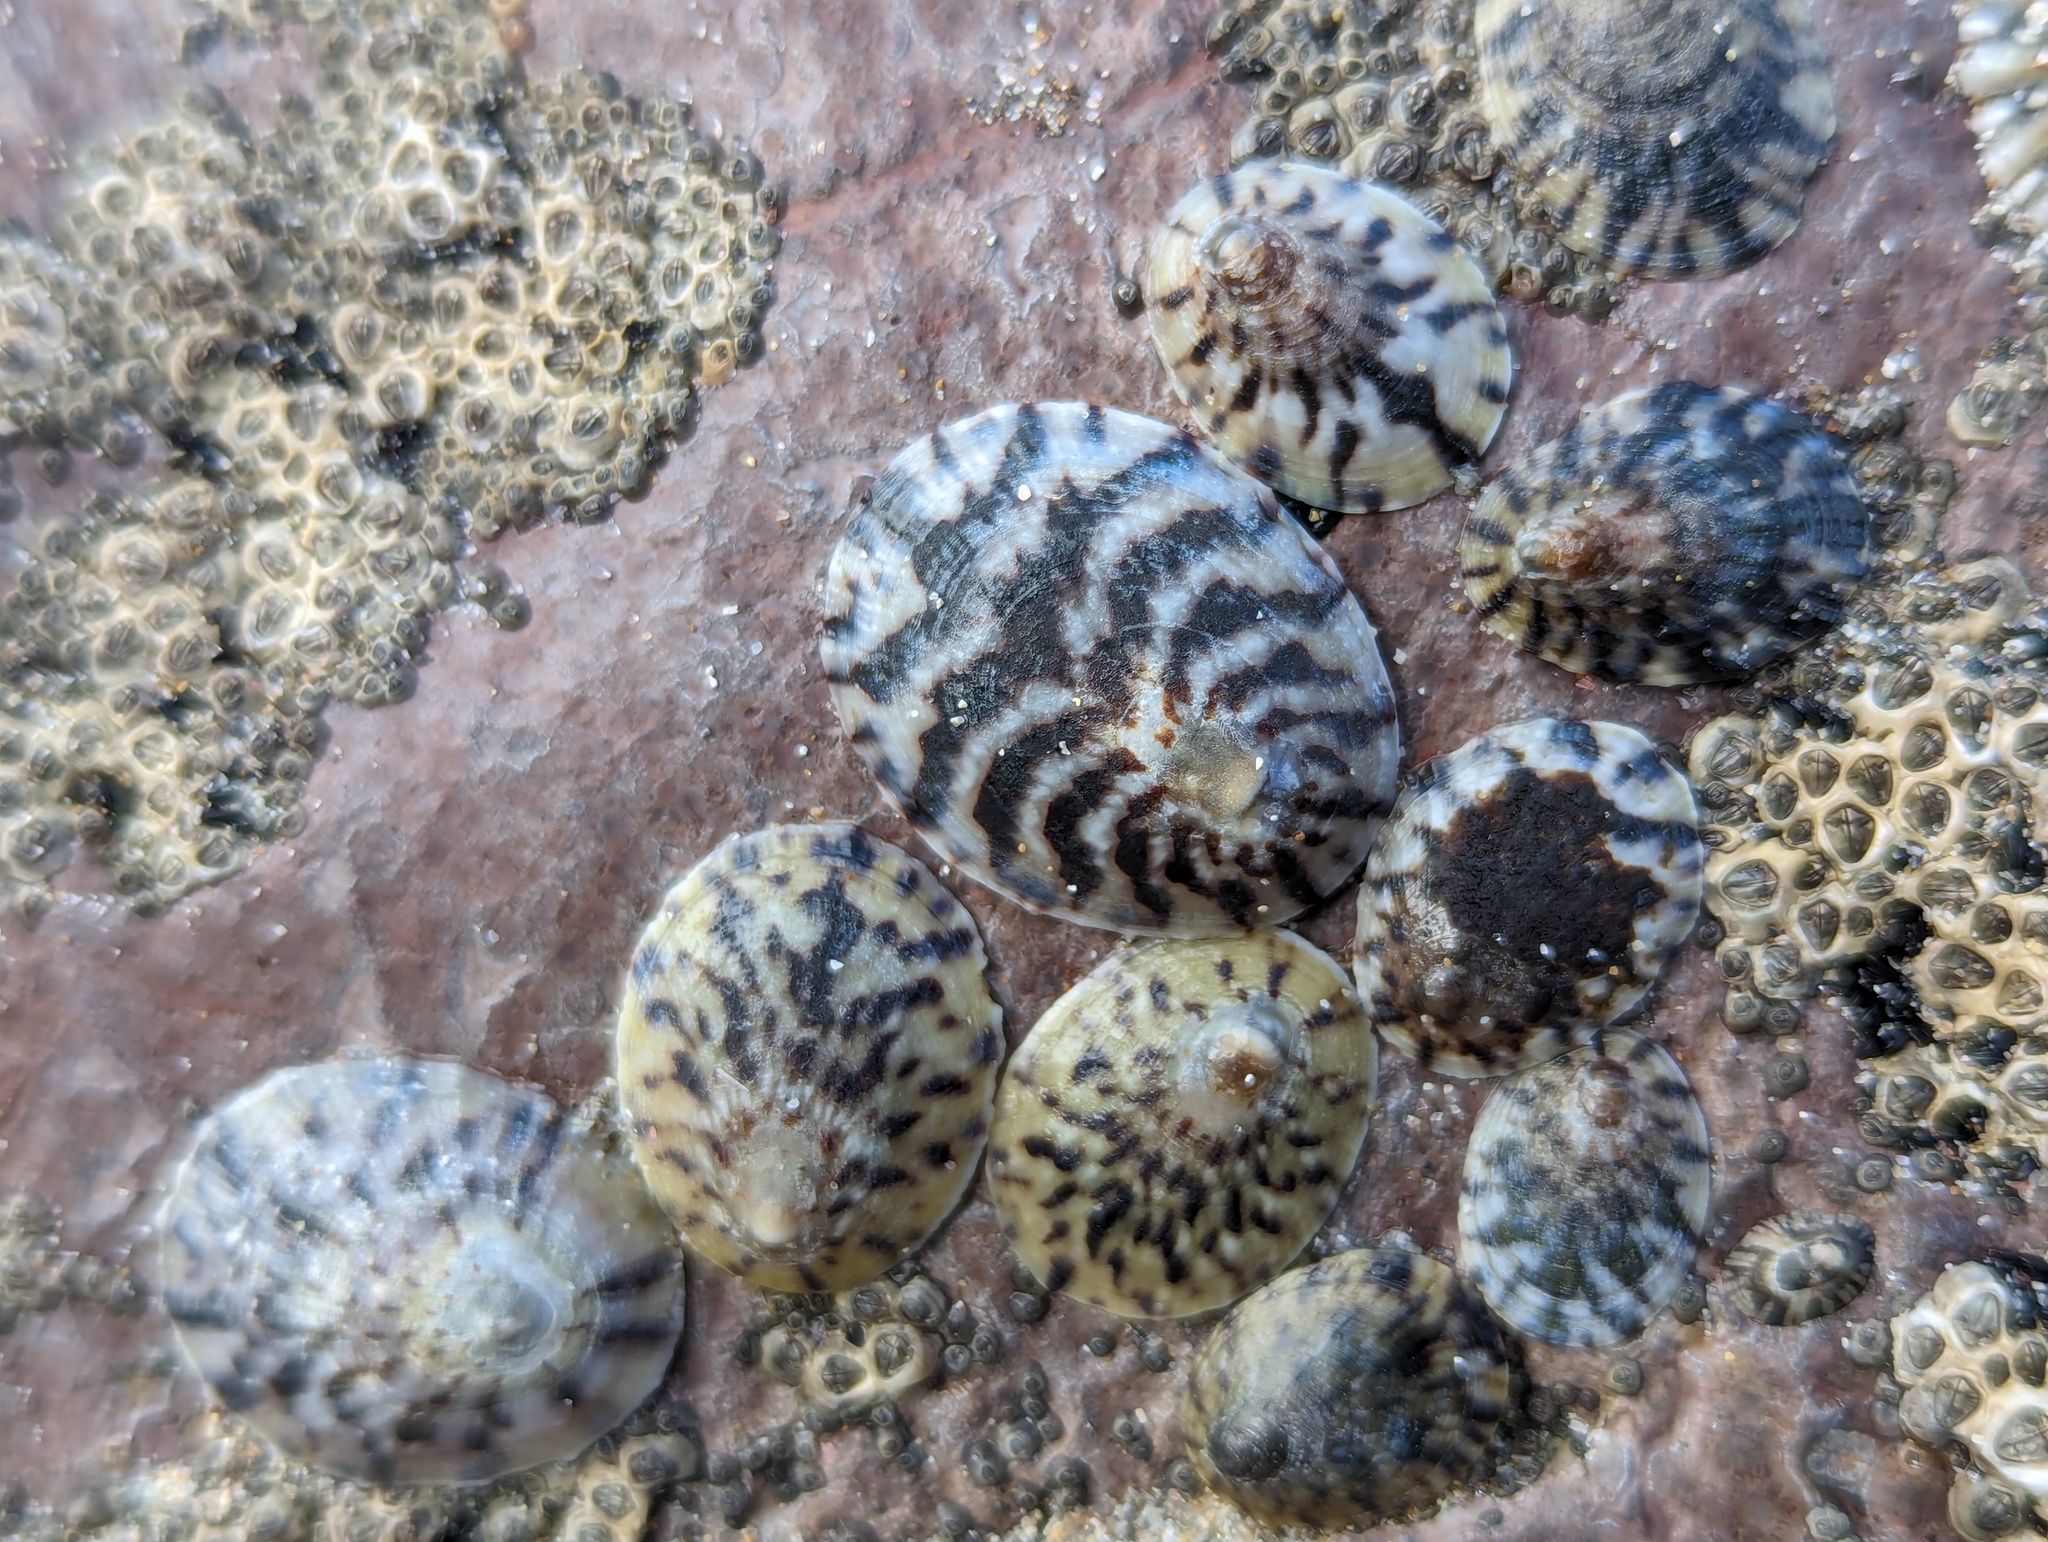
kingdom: Animalia
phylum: Mollusca
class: Gastropoda
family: Nacellidae
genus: Cellana
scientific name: Cellana radians
